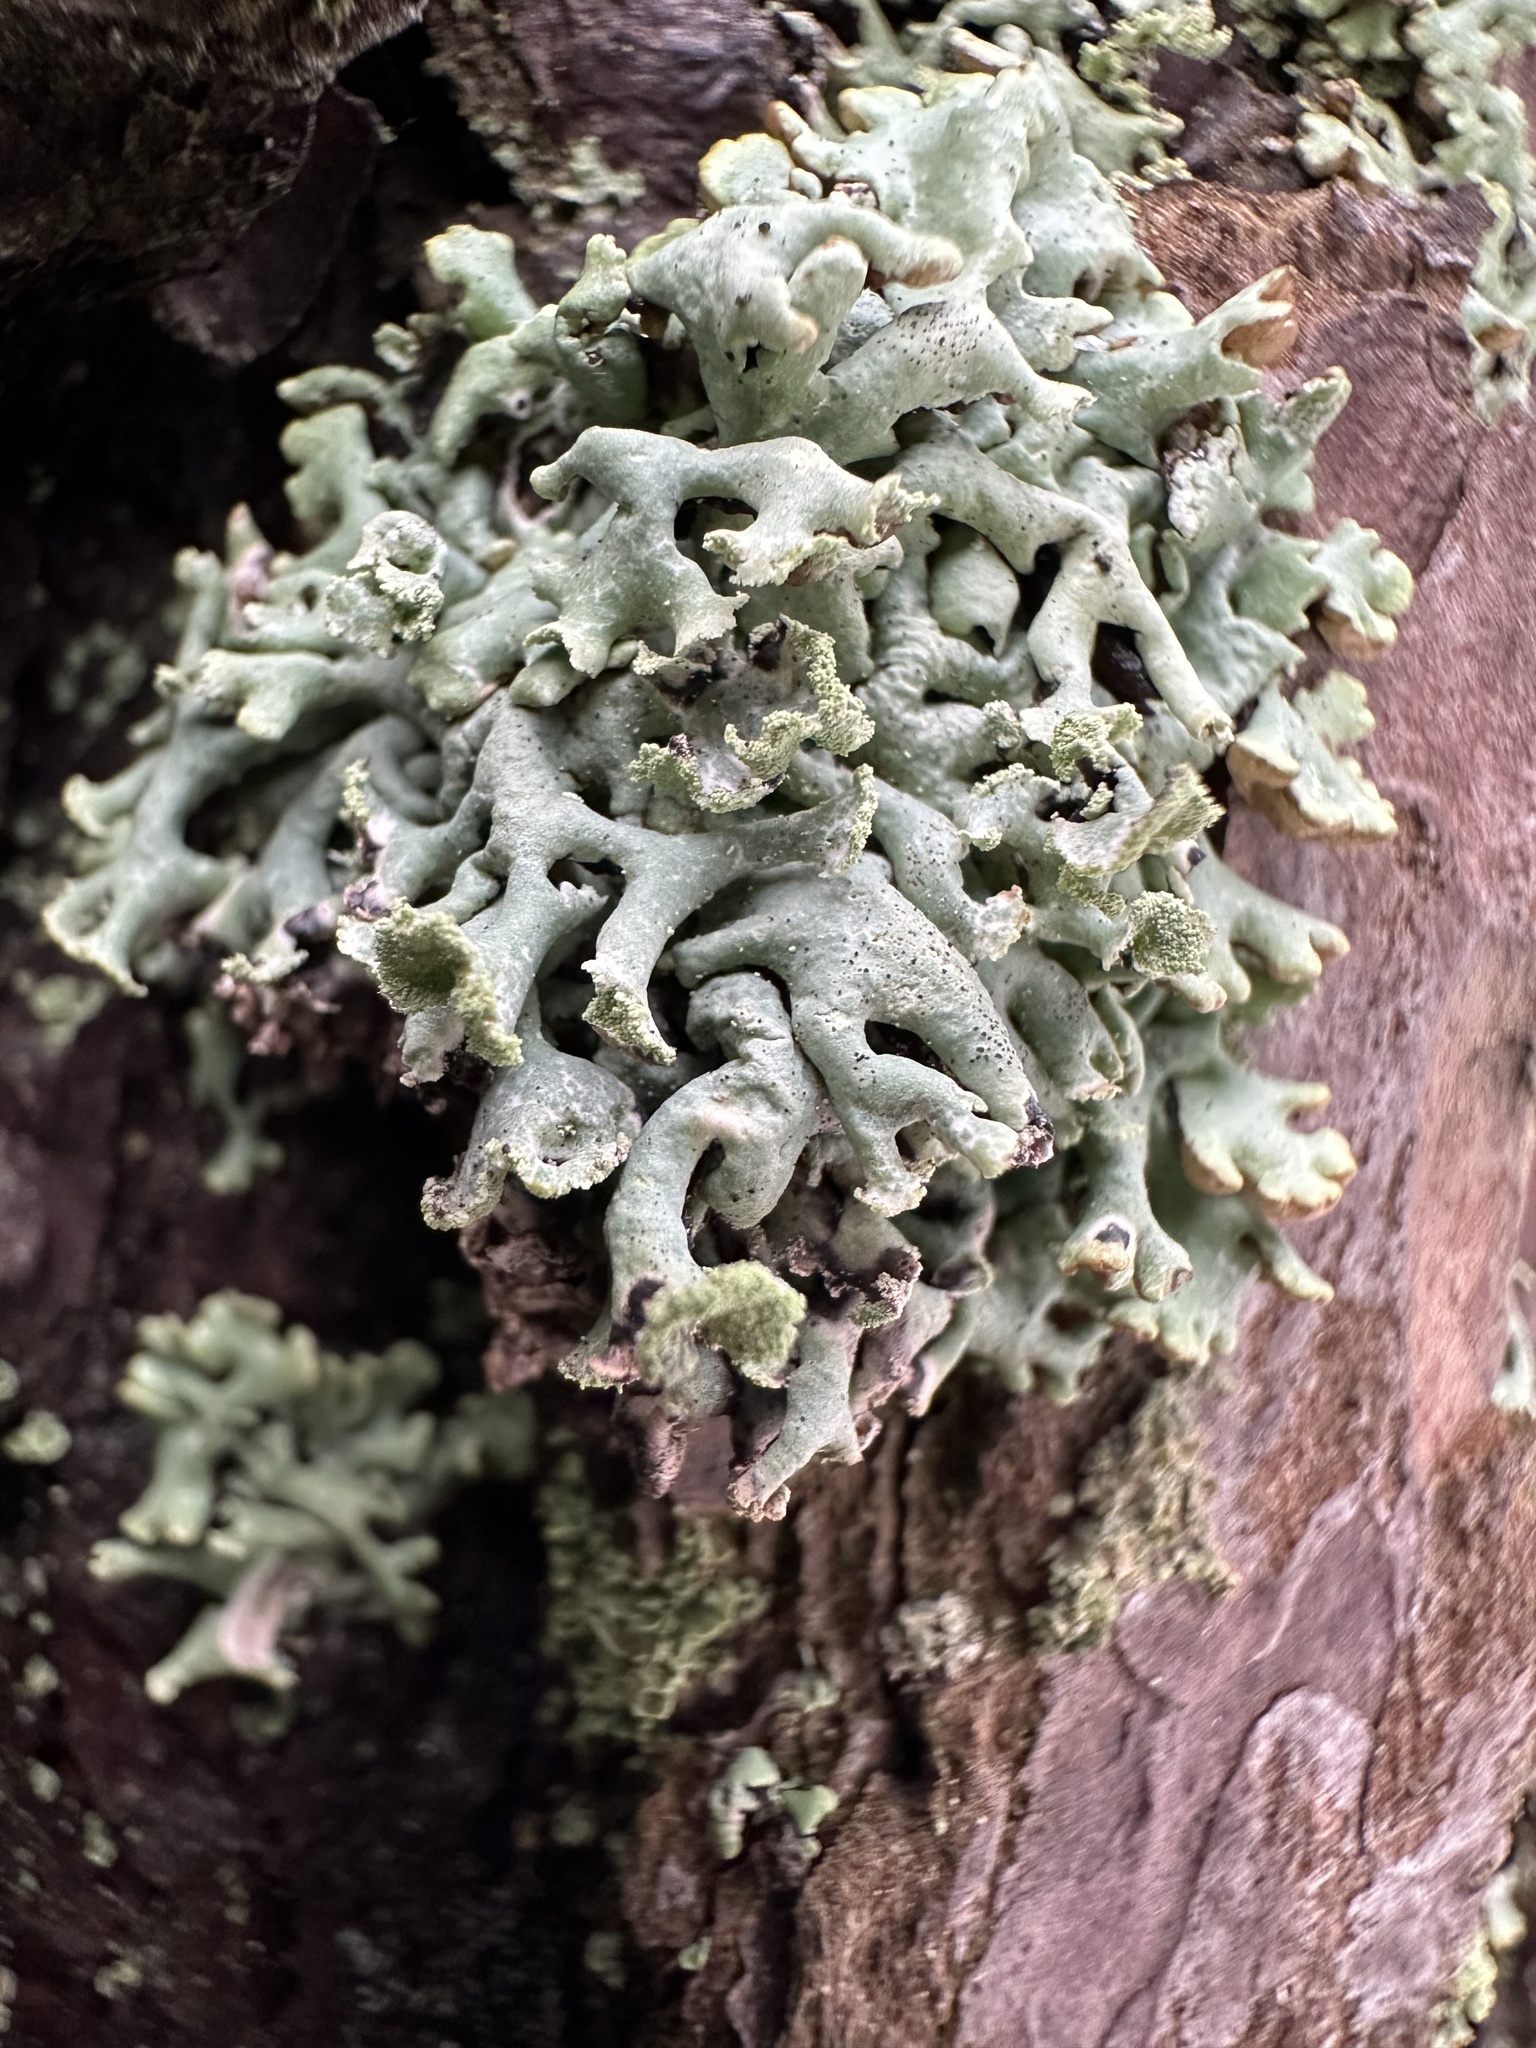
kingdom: Fungi
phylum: Ascomycota
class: Lecanoromycetes
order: Lecanorales
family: Parmeliaceae
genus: Hypogymnia
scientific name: Hypogymnia physodes
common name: Dark crottle
